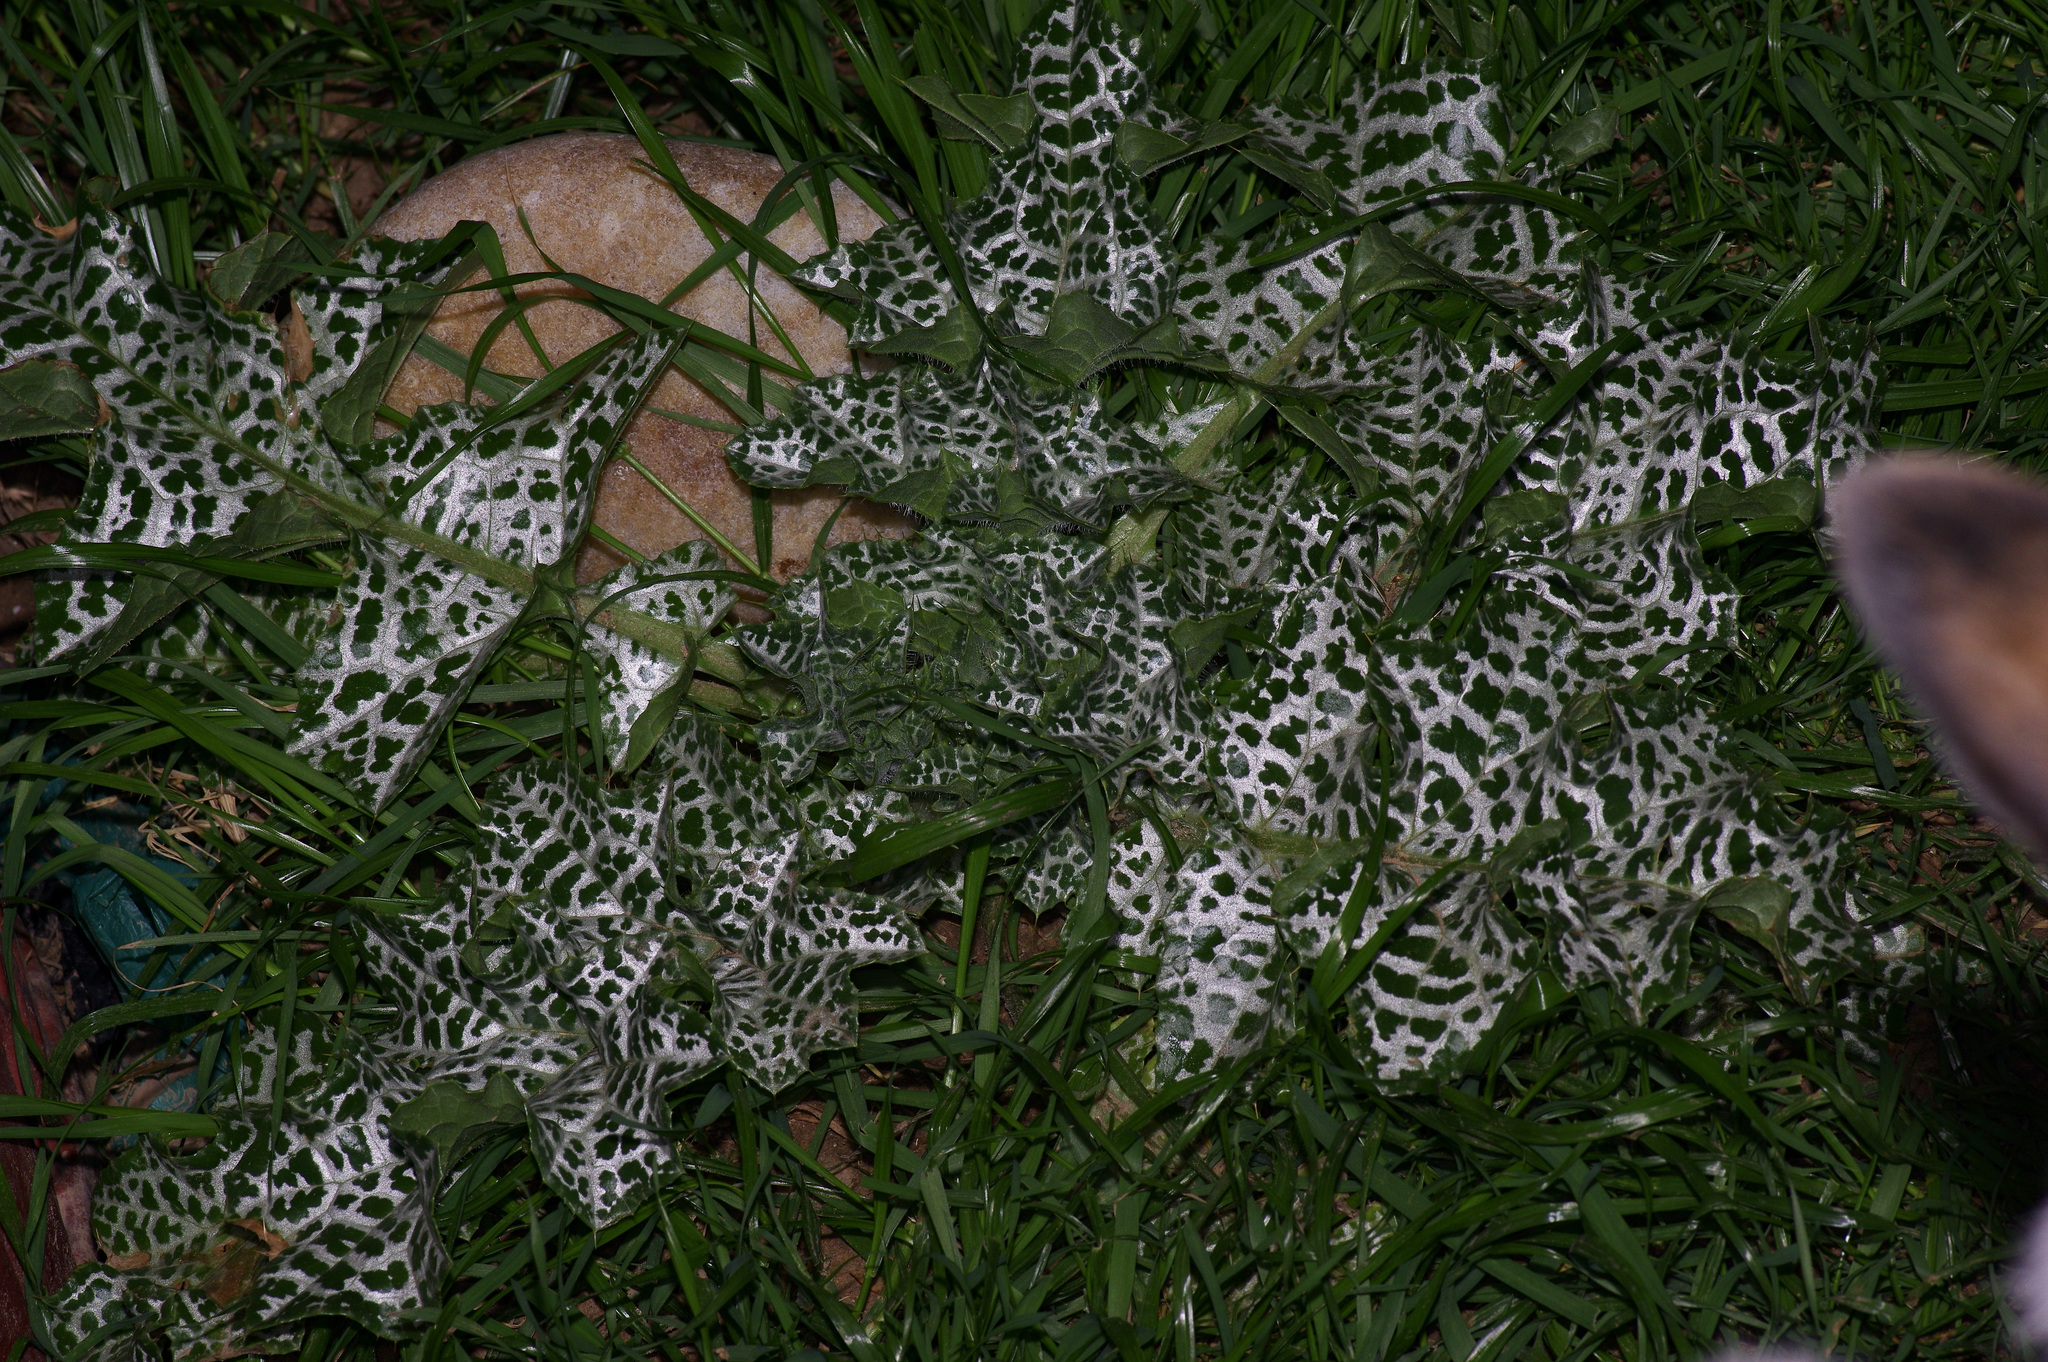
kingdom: Plantae
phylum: Tracheophyta
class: Magnoliopsida
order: Asterales
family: Asteraceae
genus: Silybum
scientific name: Silybum marianum
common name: Milk thistle
